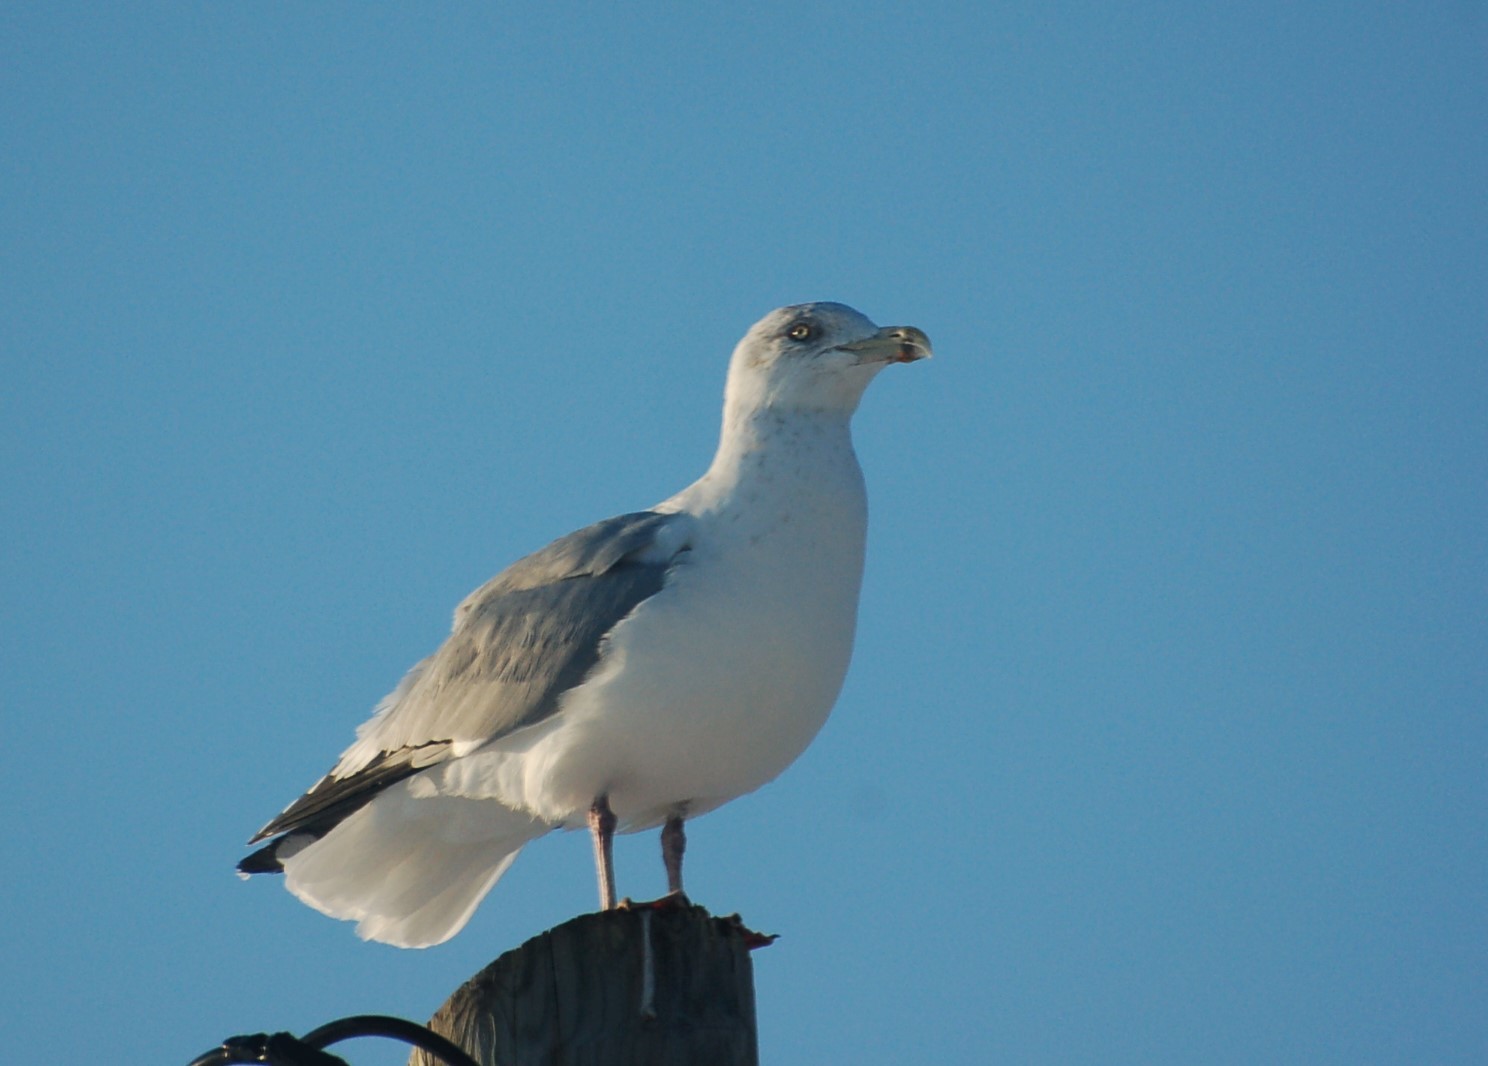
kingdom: Animalia
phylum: Chordata
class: Aves
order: Charadriiformes
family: Laridae
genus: Larus
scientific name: Larus argentatus
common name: Herring gull
